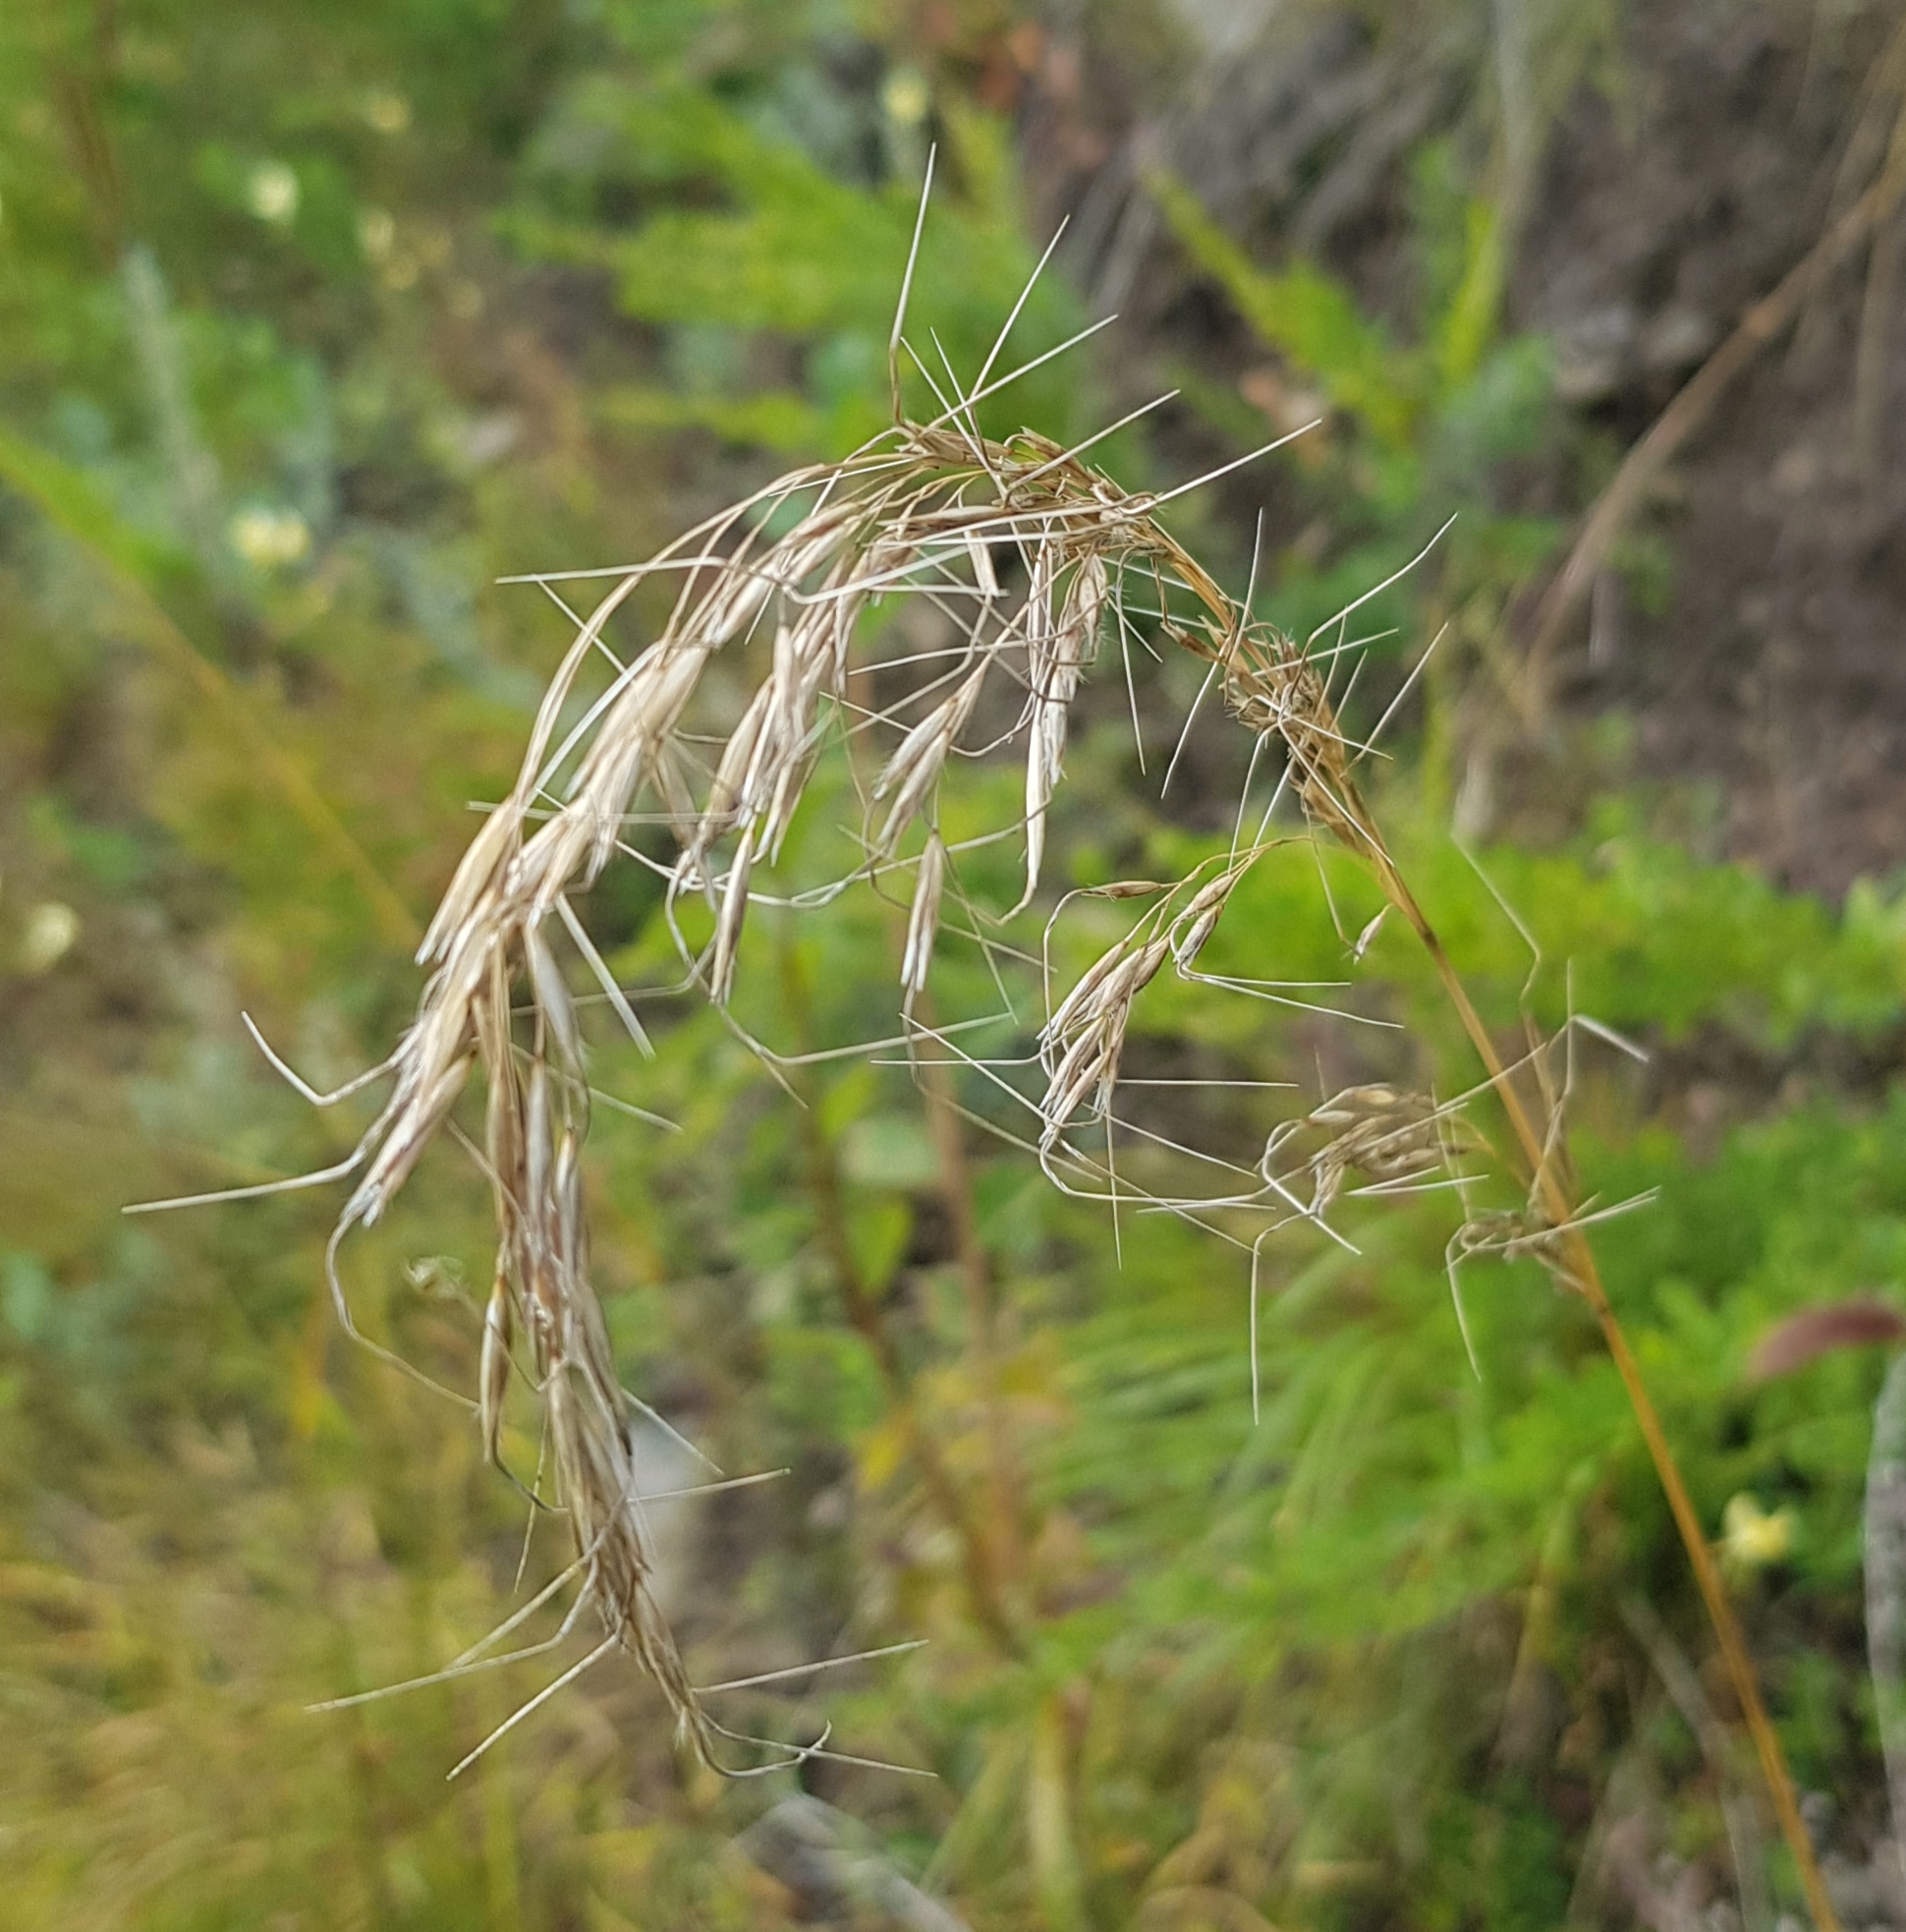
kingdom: Plantae
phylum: Tracheophyta
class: Liliopsida
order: Poales
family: Poaceae
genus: Achnatherum
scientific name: Achnatherum sibiricum
